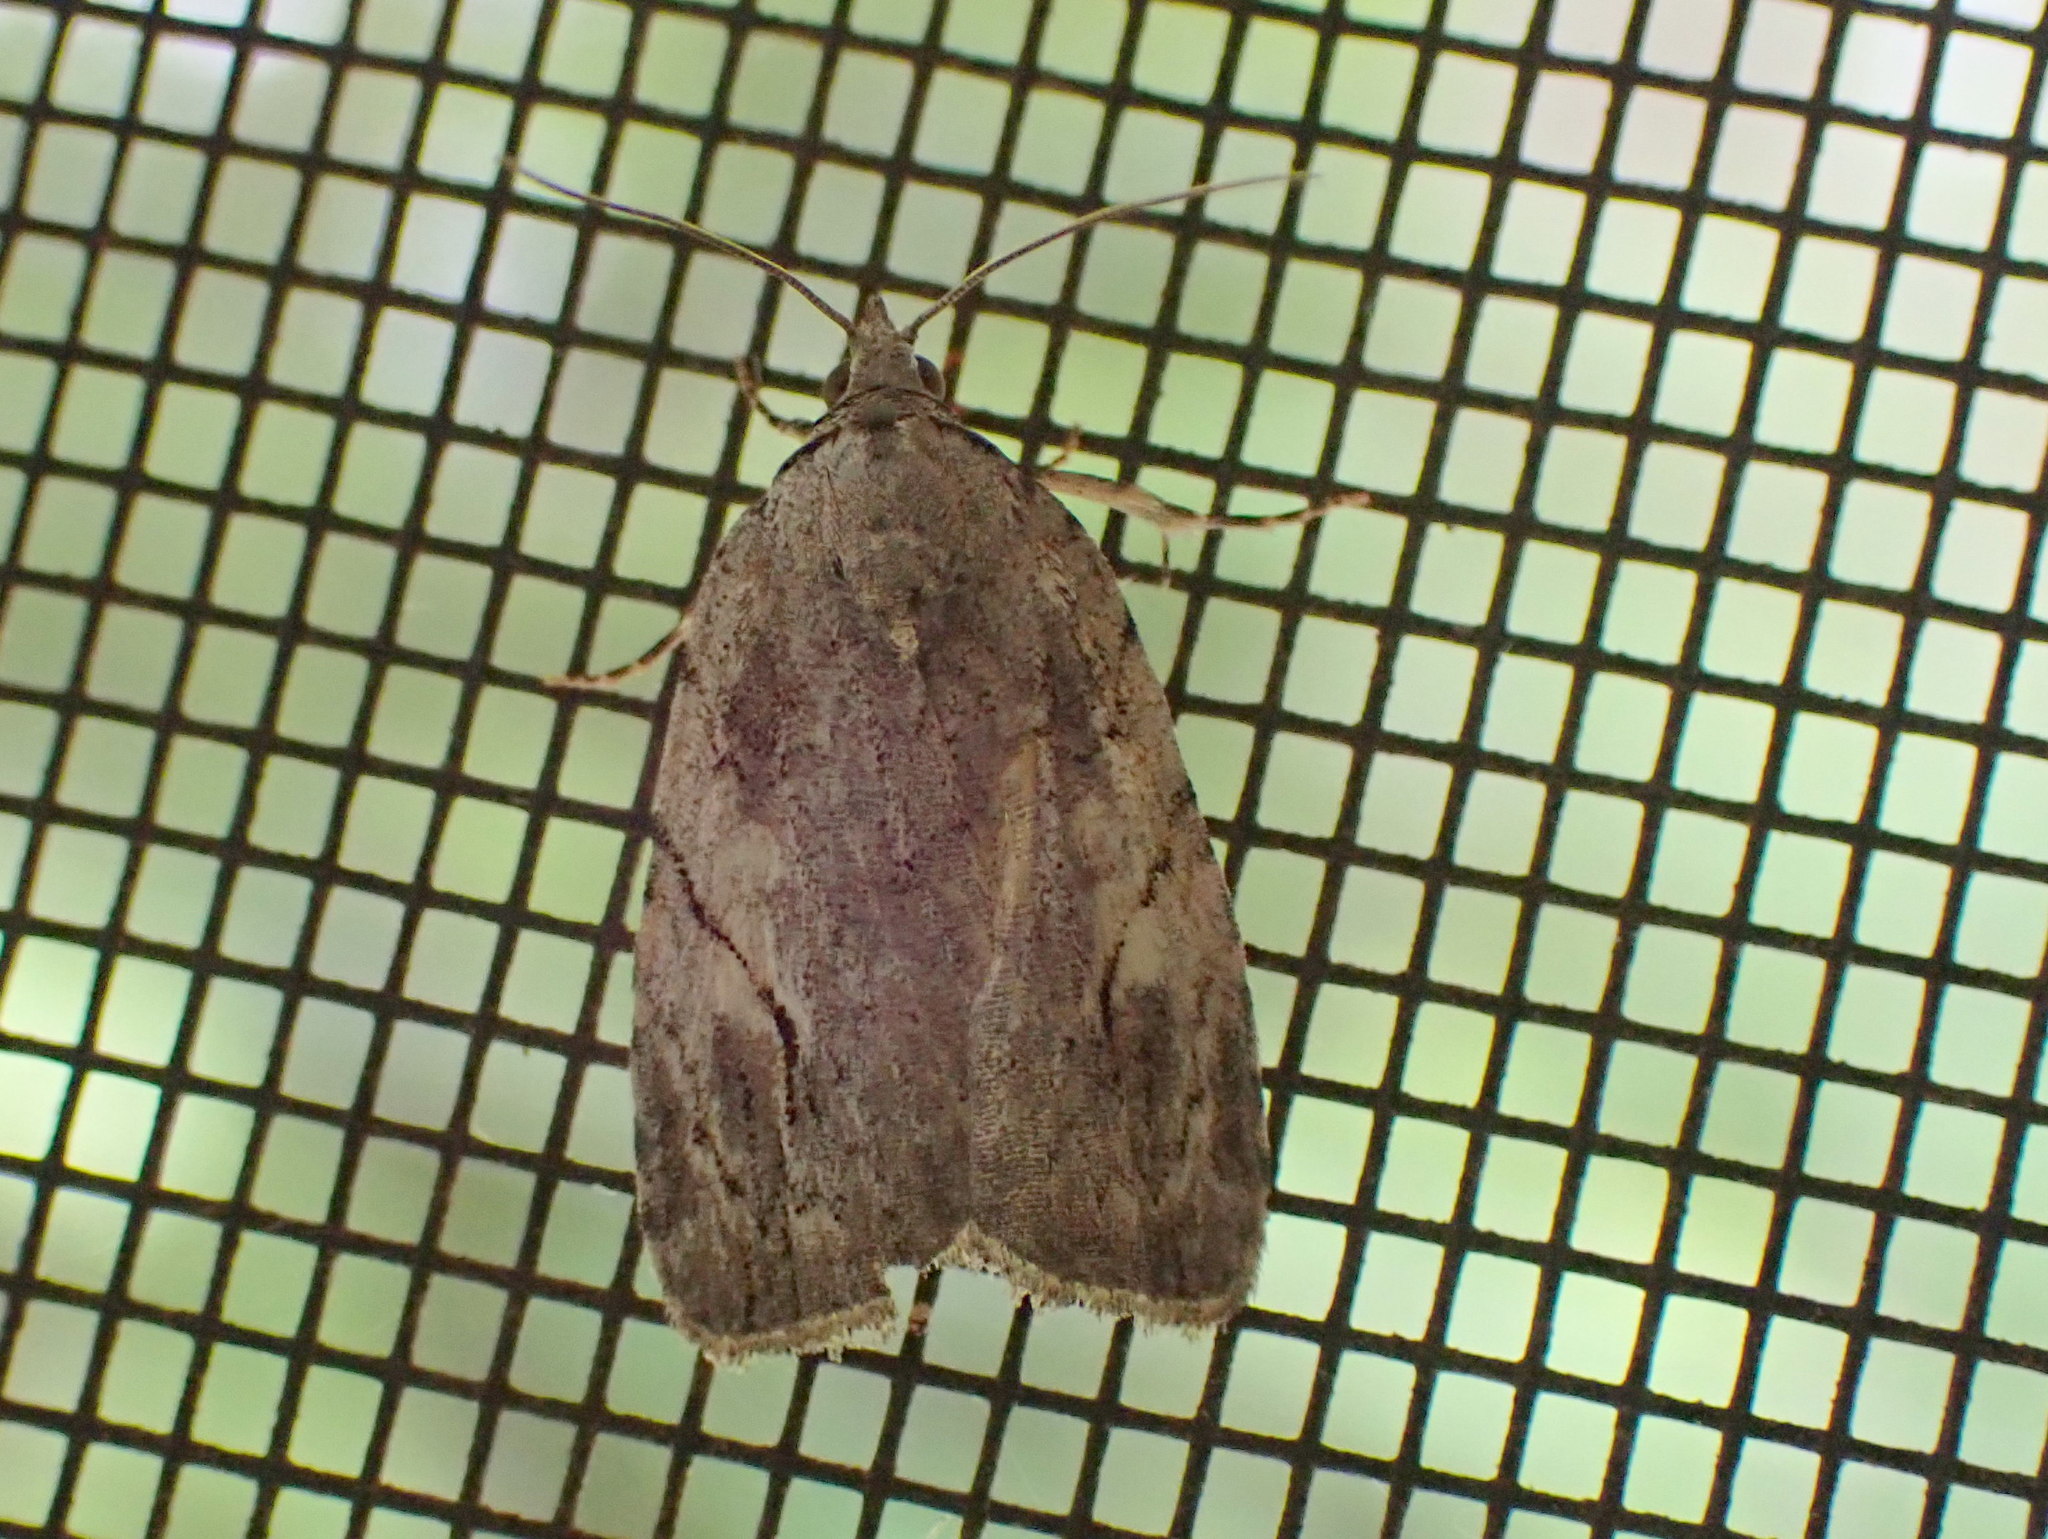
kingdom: Animalia
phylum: Arthropoda
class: Insecta
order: Lepidoptera
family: Noctuidae
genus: Balsa
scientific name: Balsa labecula
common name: White-blotched balsa moth
